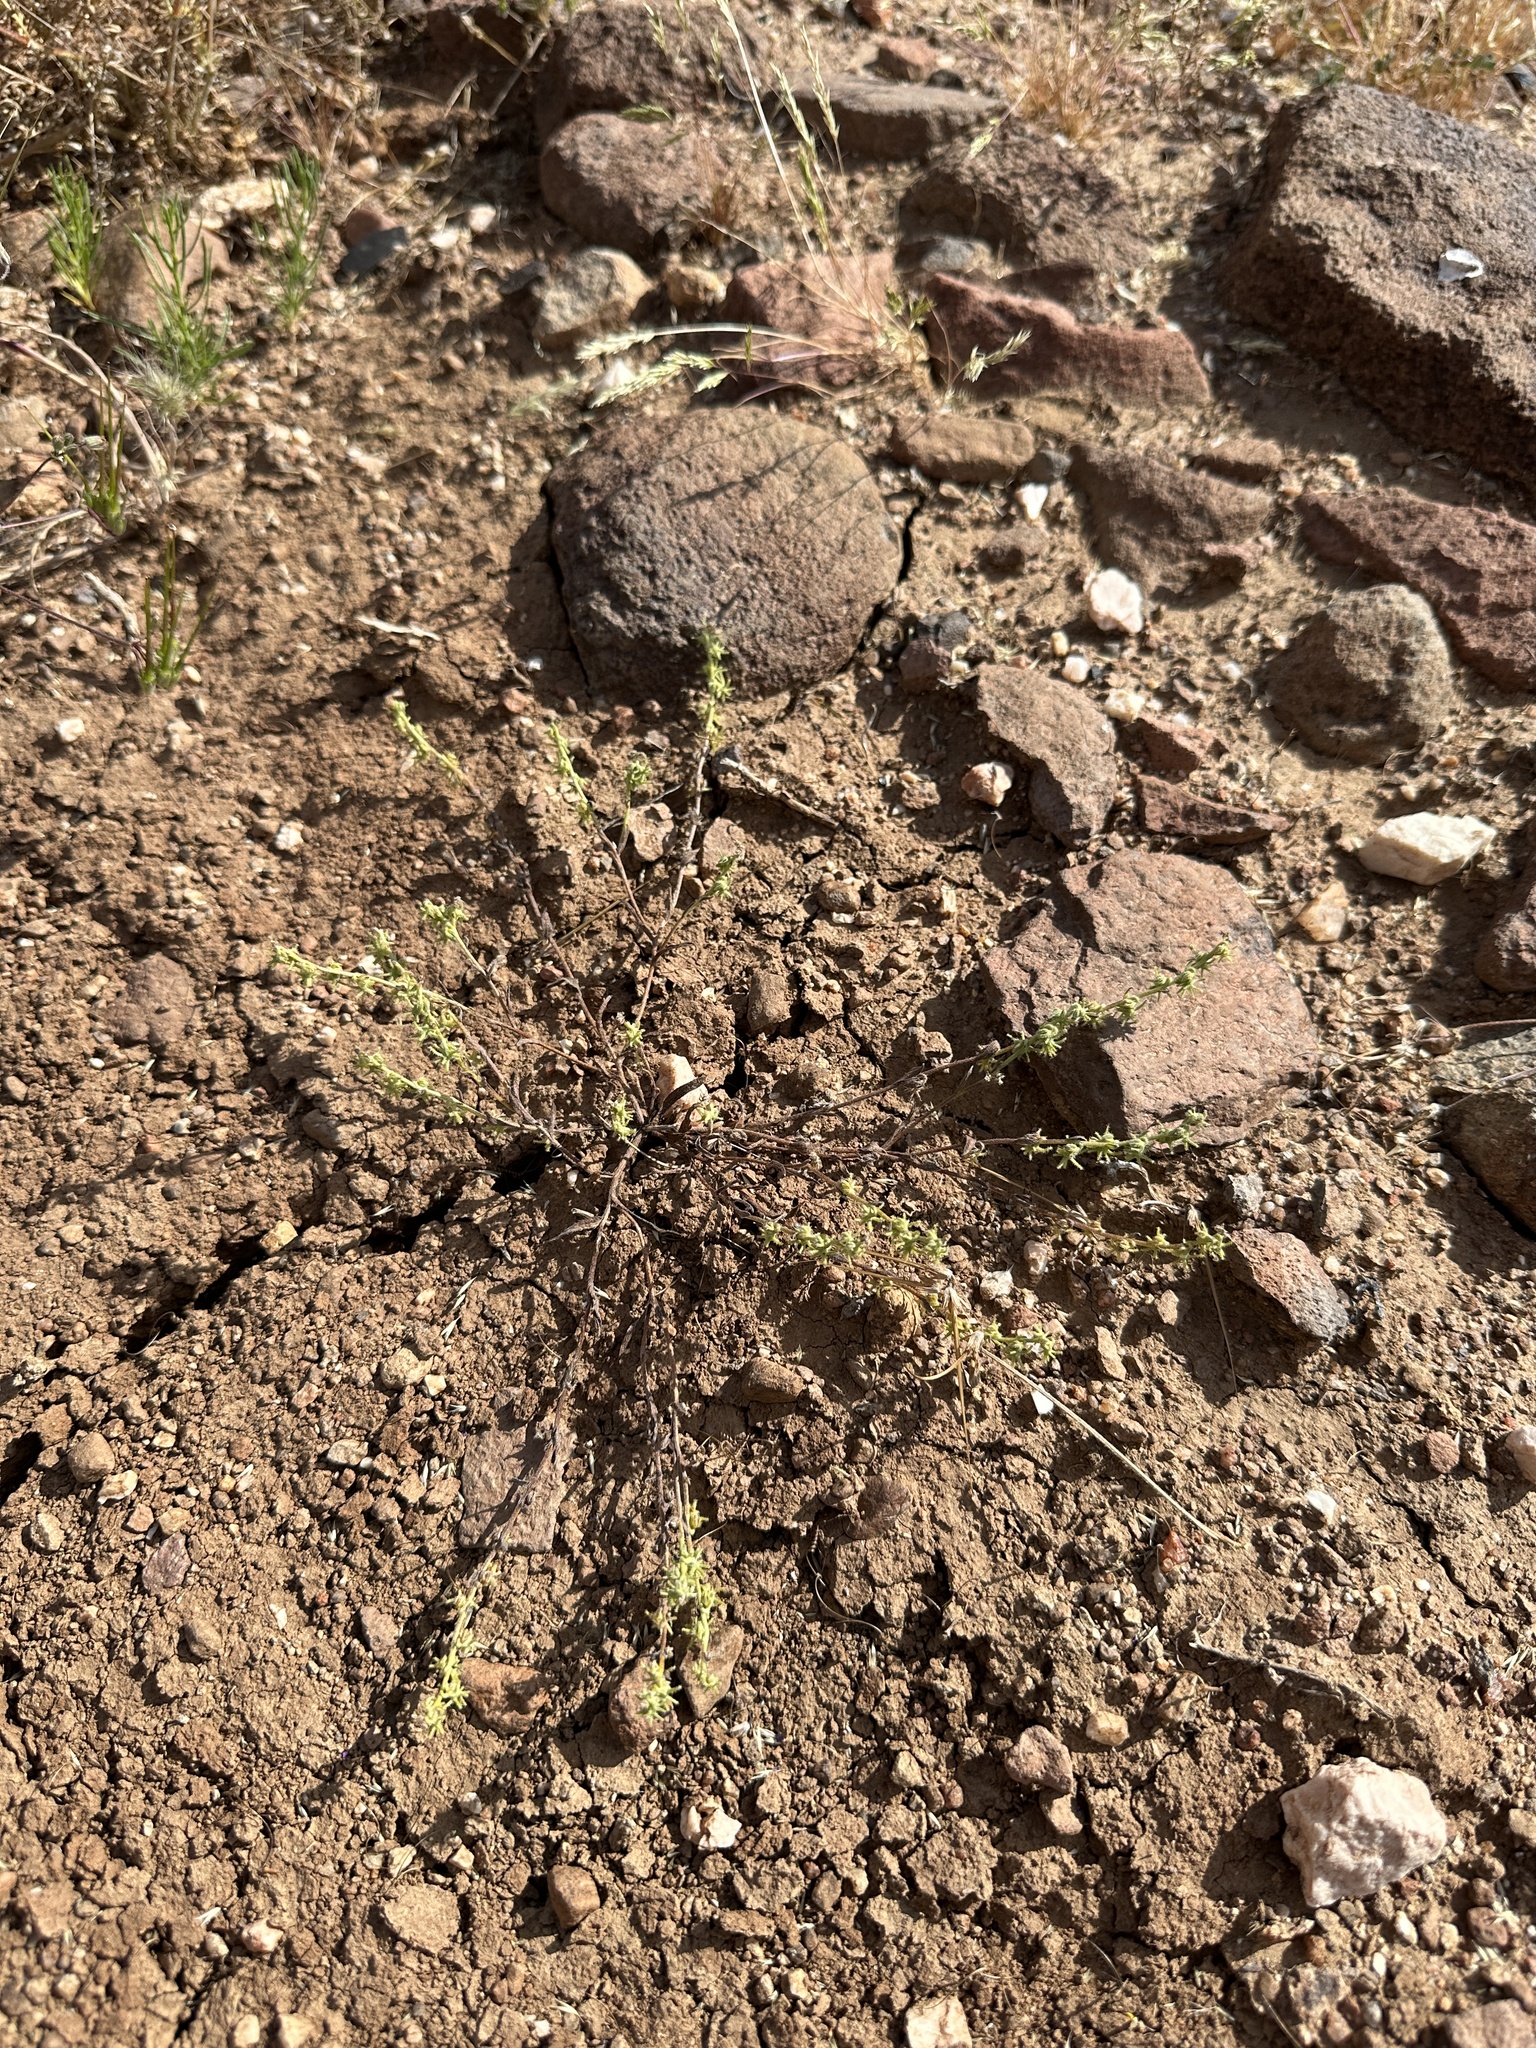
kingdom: Plantae
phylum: Tracheophyta
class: Magnoliopsida
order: Boraginales
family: Boraginaceae
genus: Harpagonella
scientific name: Harpagonella palmeri
